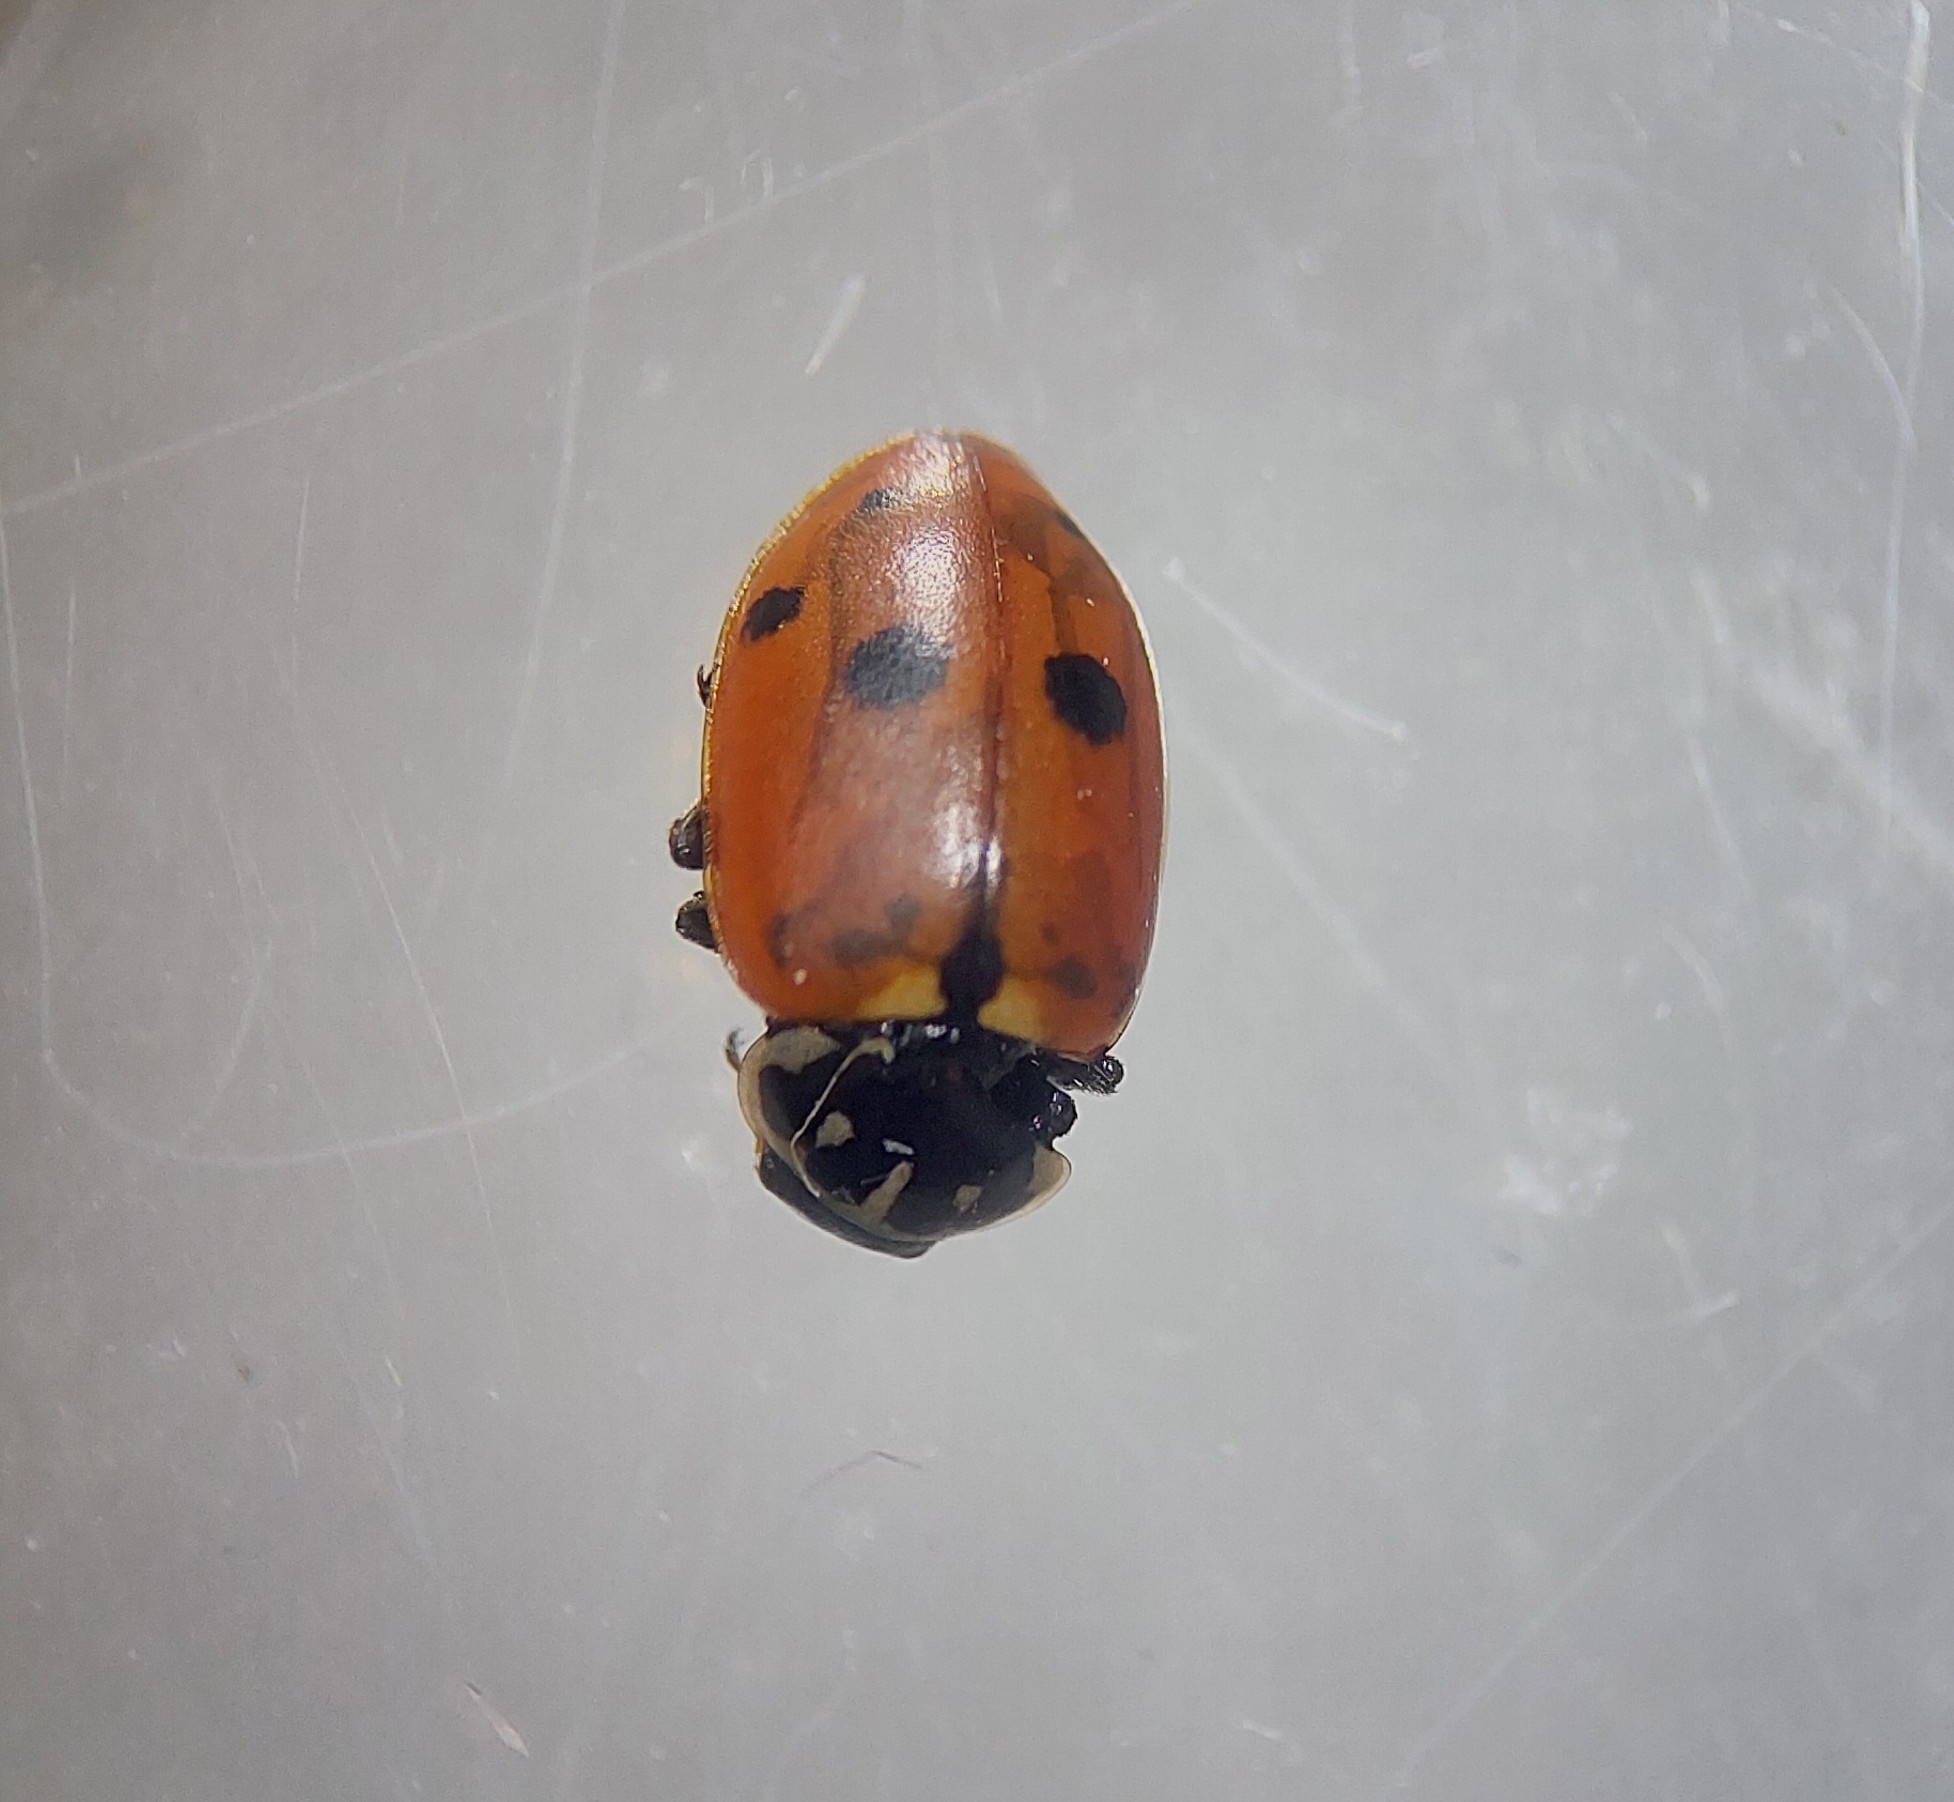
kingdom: Animalia
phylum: Arthropoda
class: Insecta
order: Coleoptera
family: Coccinellidae
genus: Hippodamia
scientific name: Hippodamia variegata
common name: Ladybird beetle
